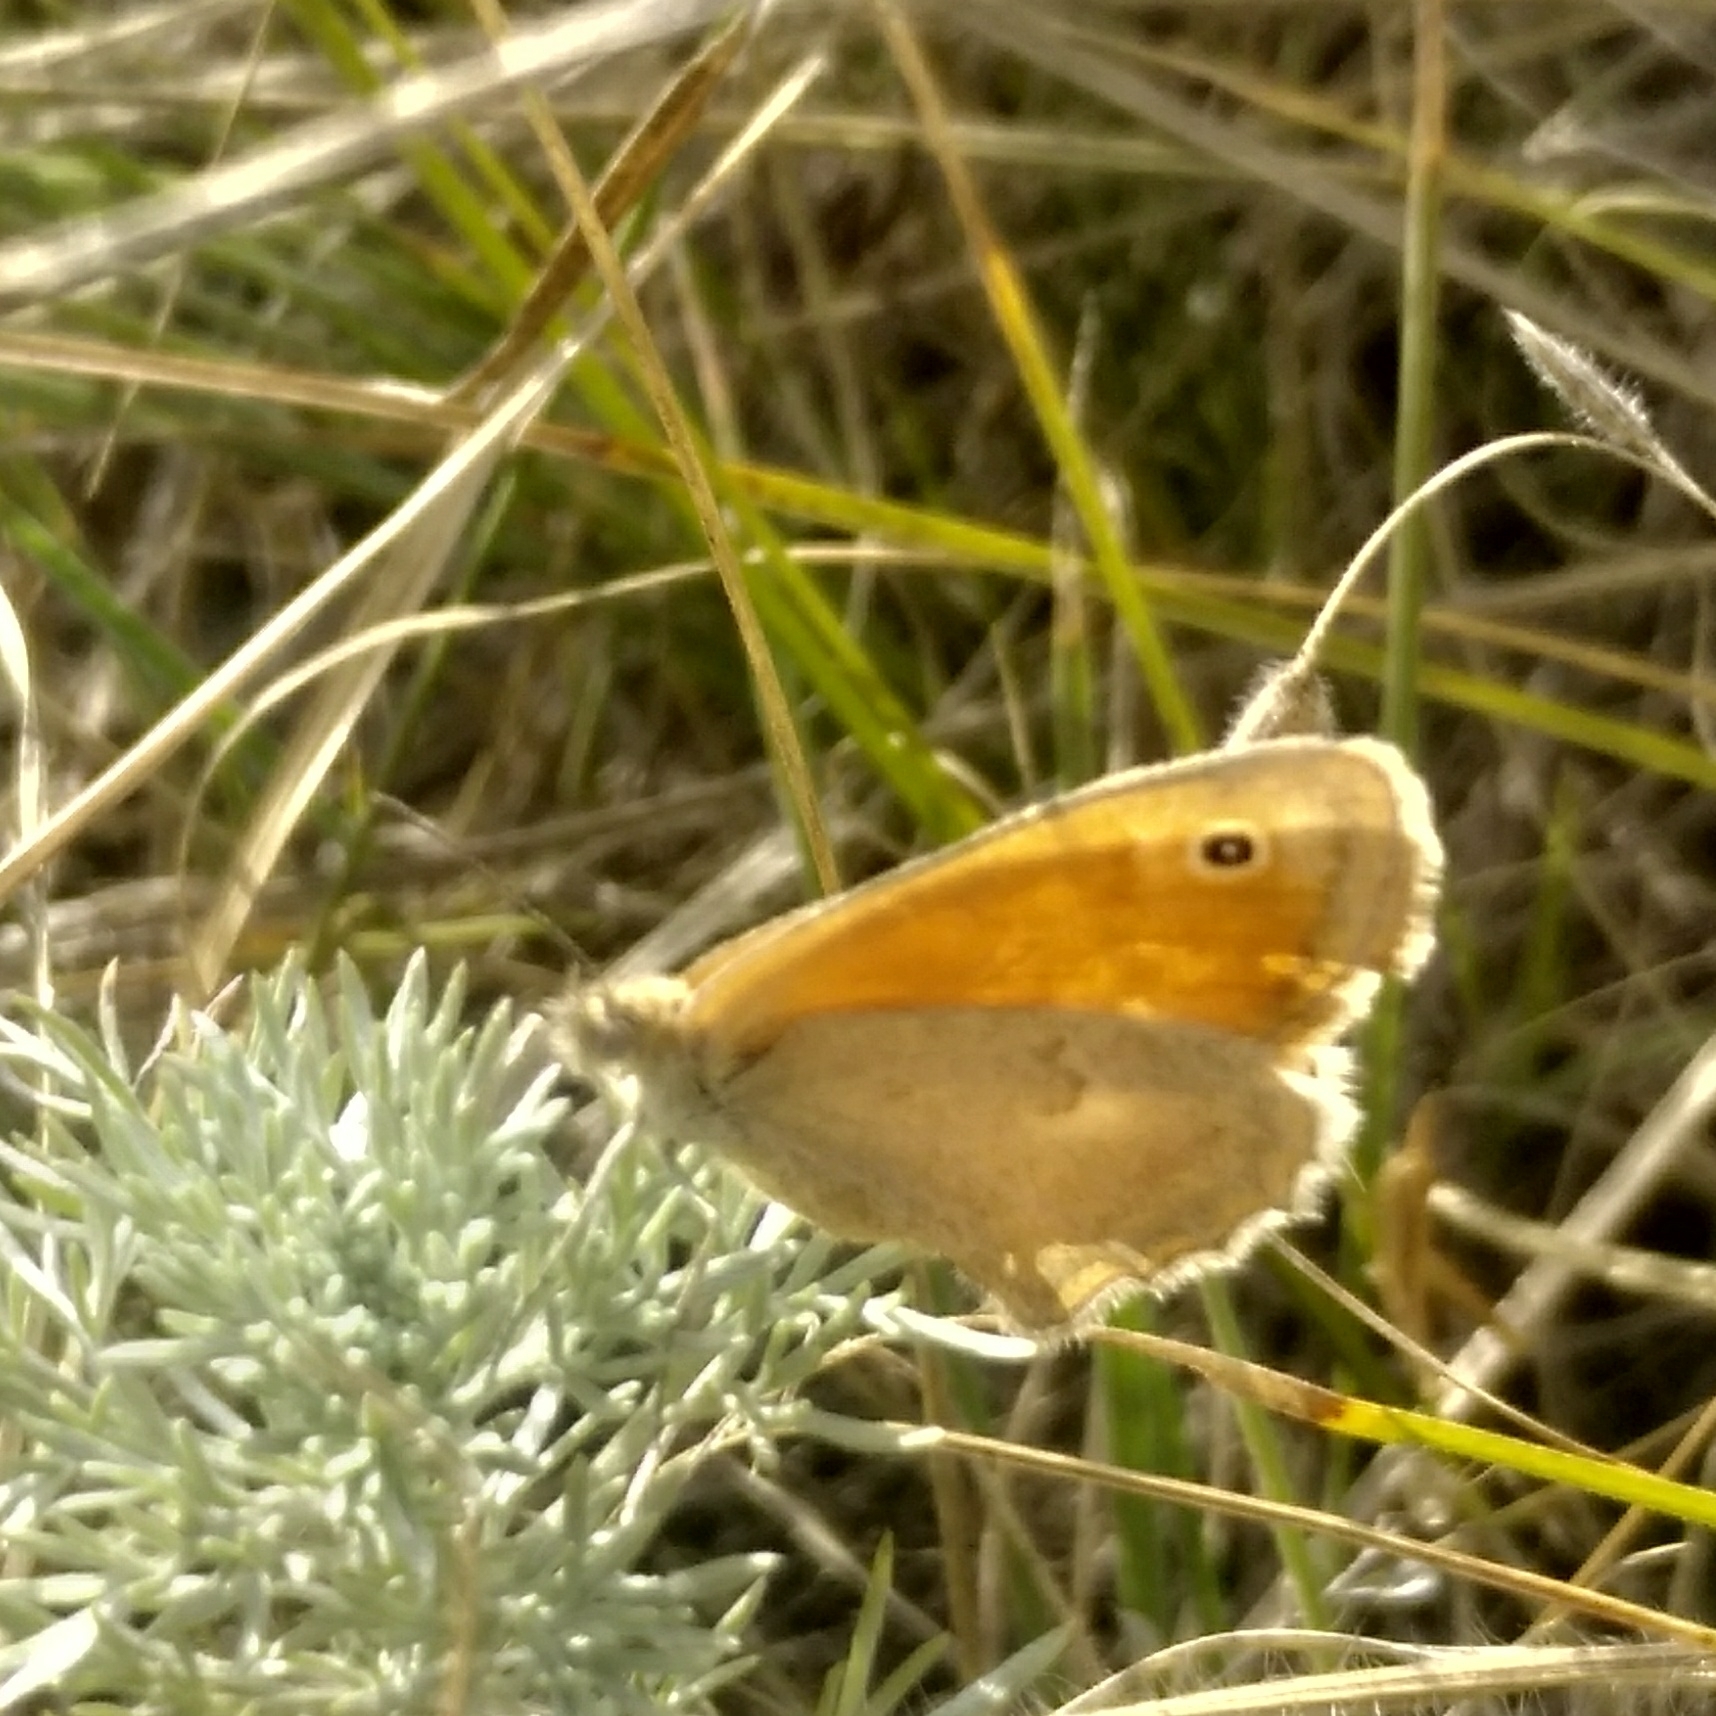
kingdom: Animalia
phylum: Arthropoda
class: Insecta
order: Lepidoptera
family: Nymphalidae
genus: Coenonympha
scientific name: Coenonympha pamphilus
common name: Small heath
